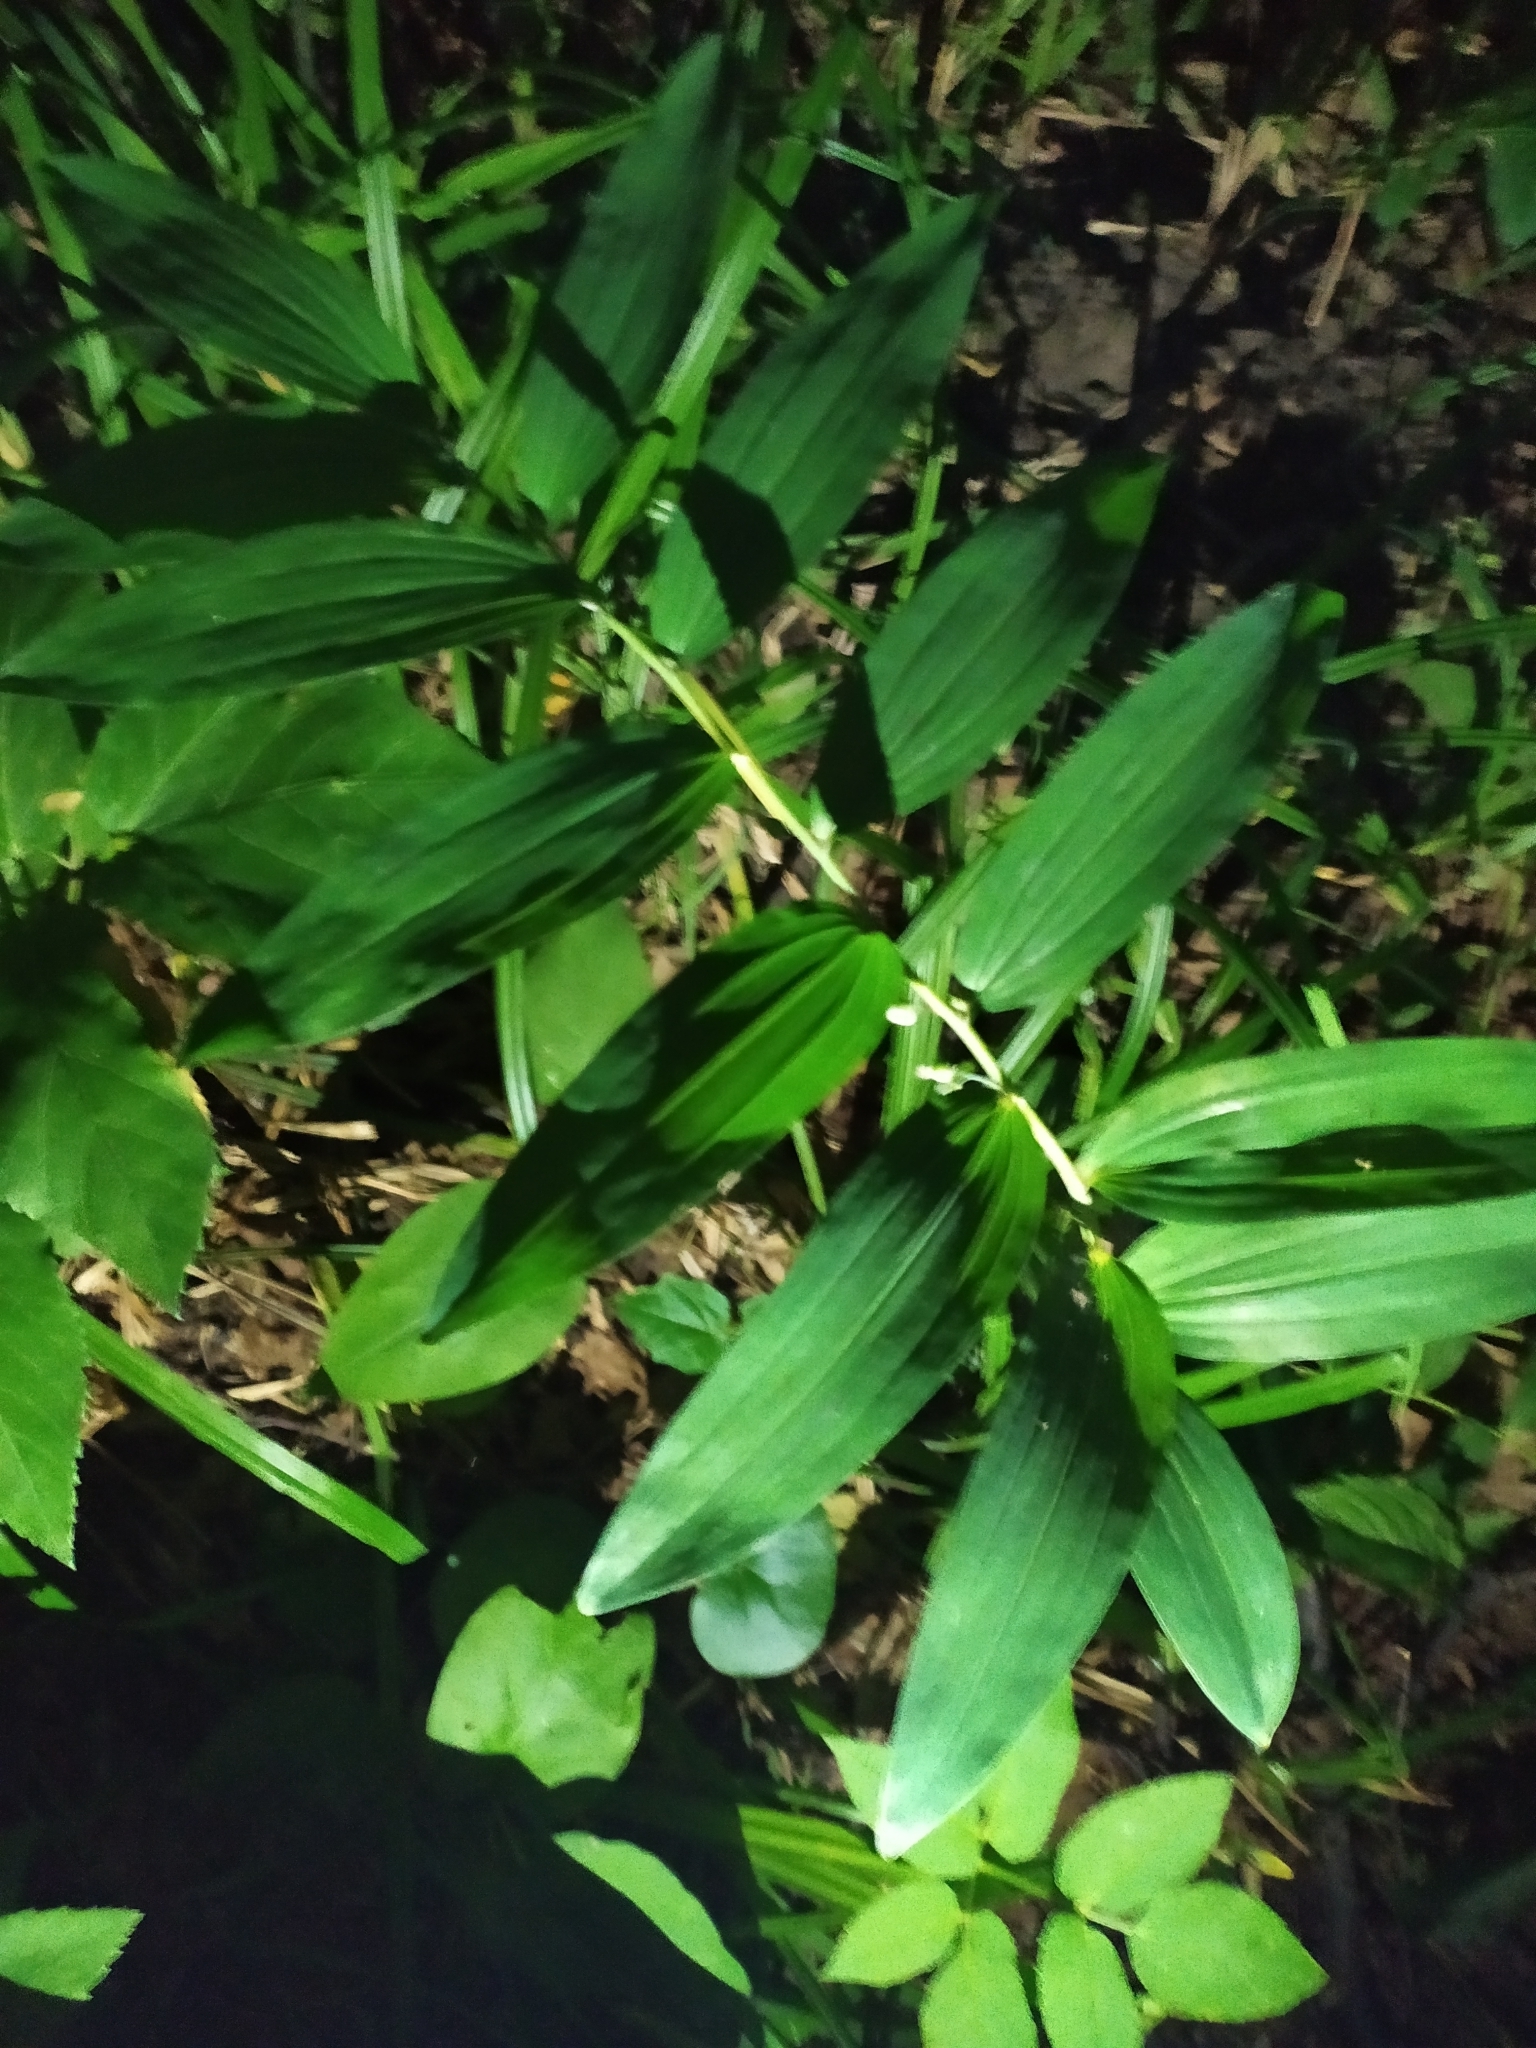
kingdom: Plantae
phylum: Tracheophyta
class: Liliopsida
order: Asparagales
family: Asparagaceae
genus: Polygonatum
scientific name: Polygonatum multiflorum
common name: Solomon's-seal
